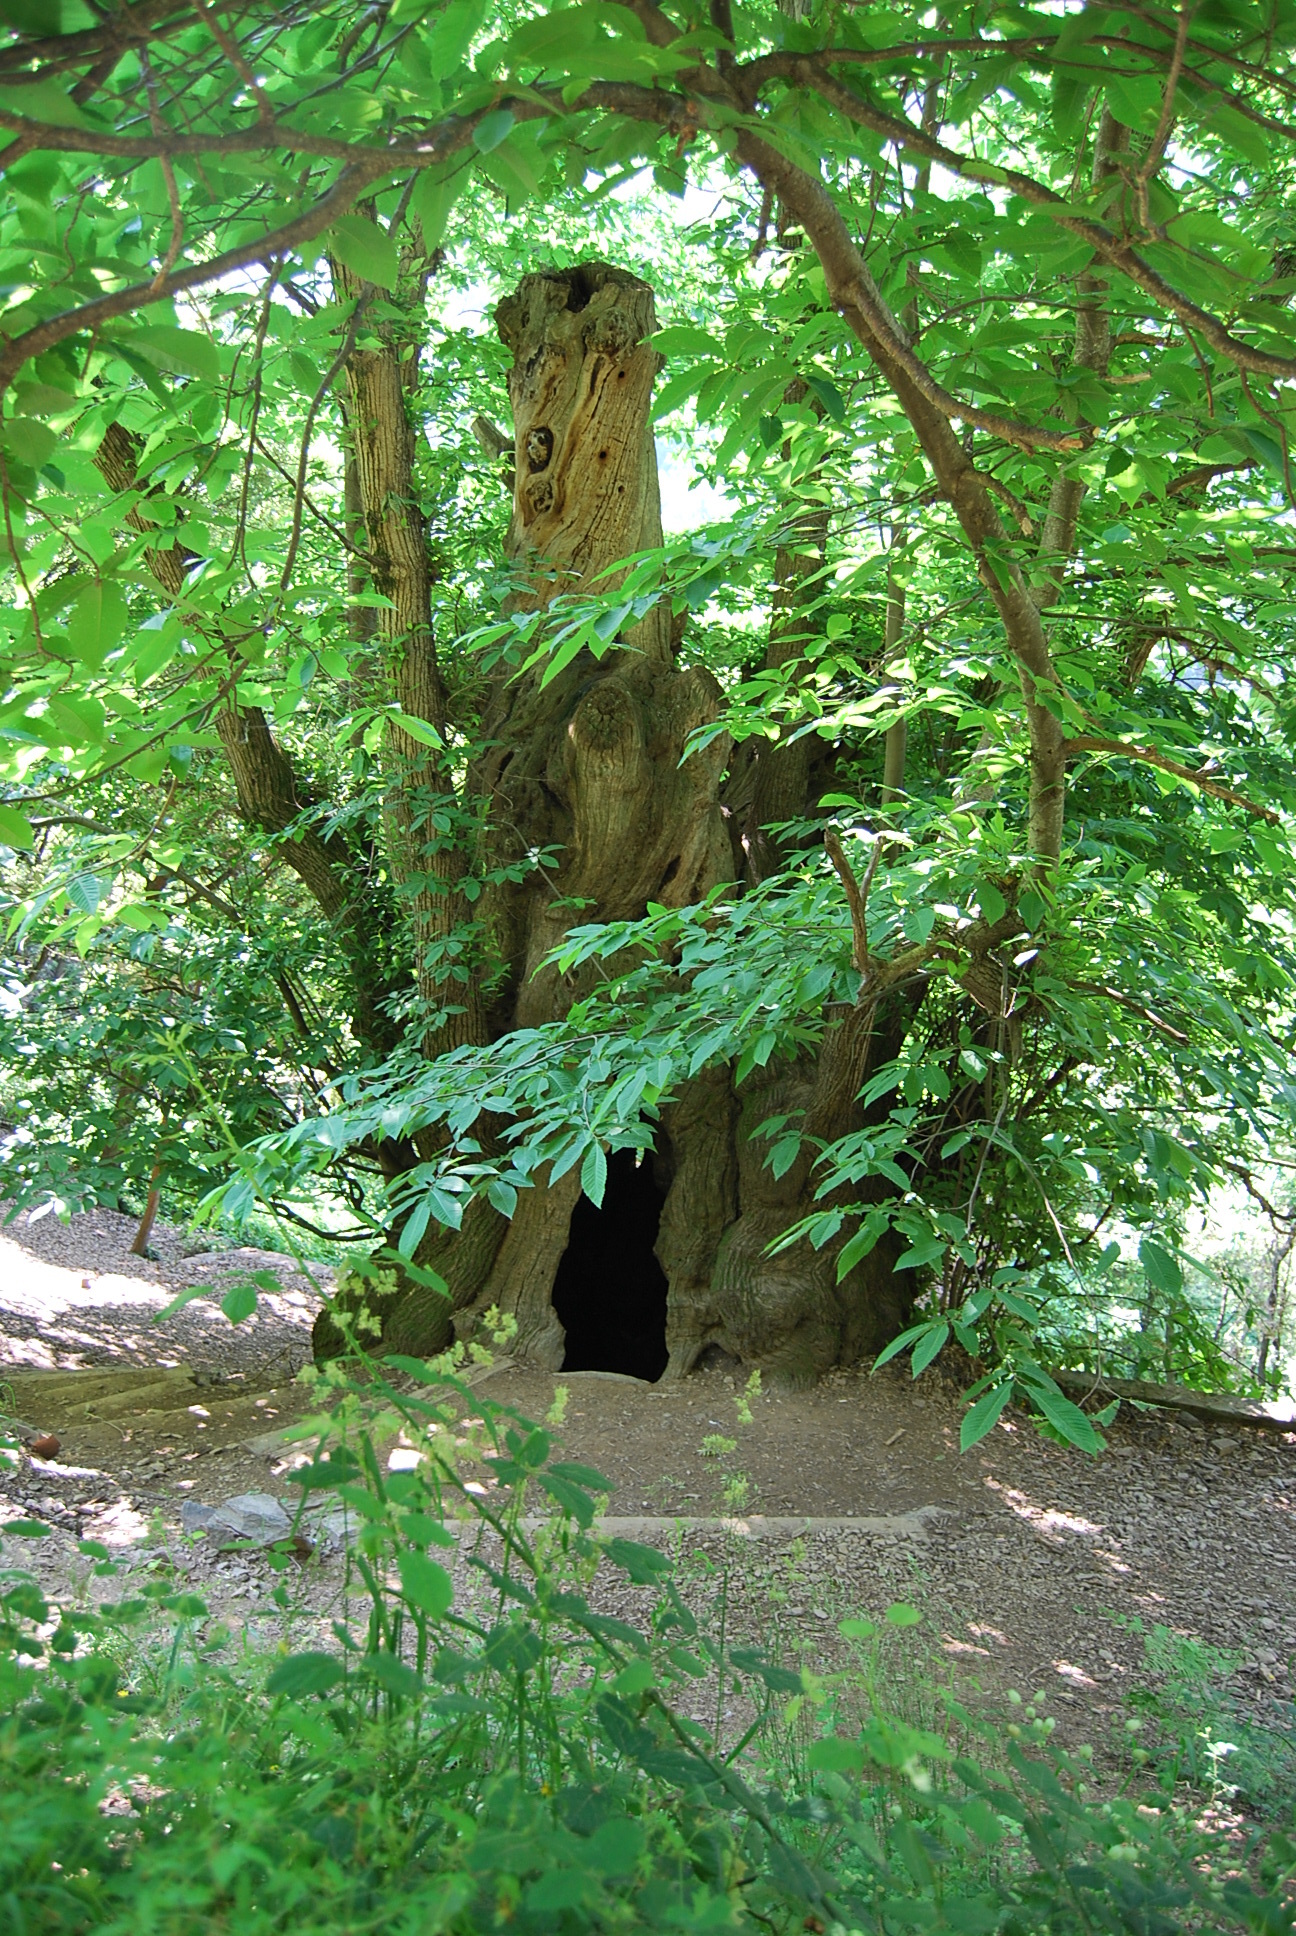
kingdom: Plantae
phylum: Tracheophyta
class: Magnoliopsida
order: Fagales
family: Fagaceae
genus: Castanea
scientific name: Castanea sativa
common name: Sweet chestnut
